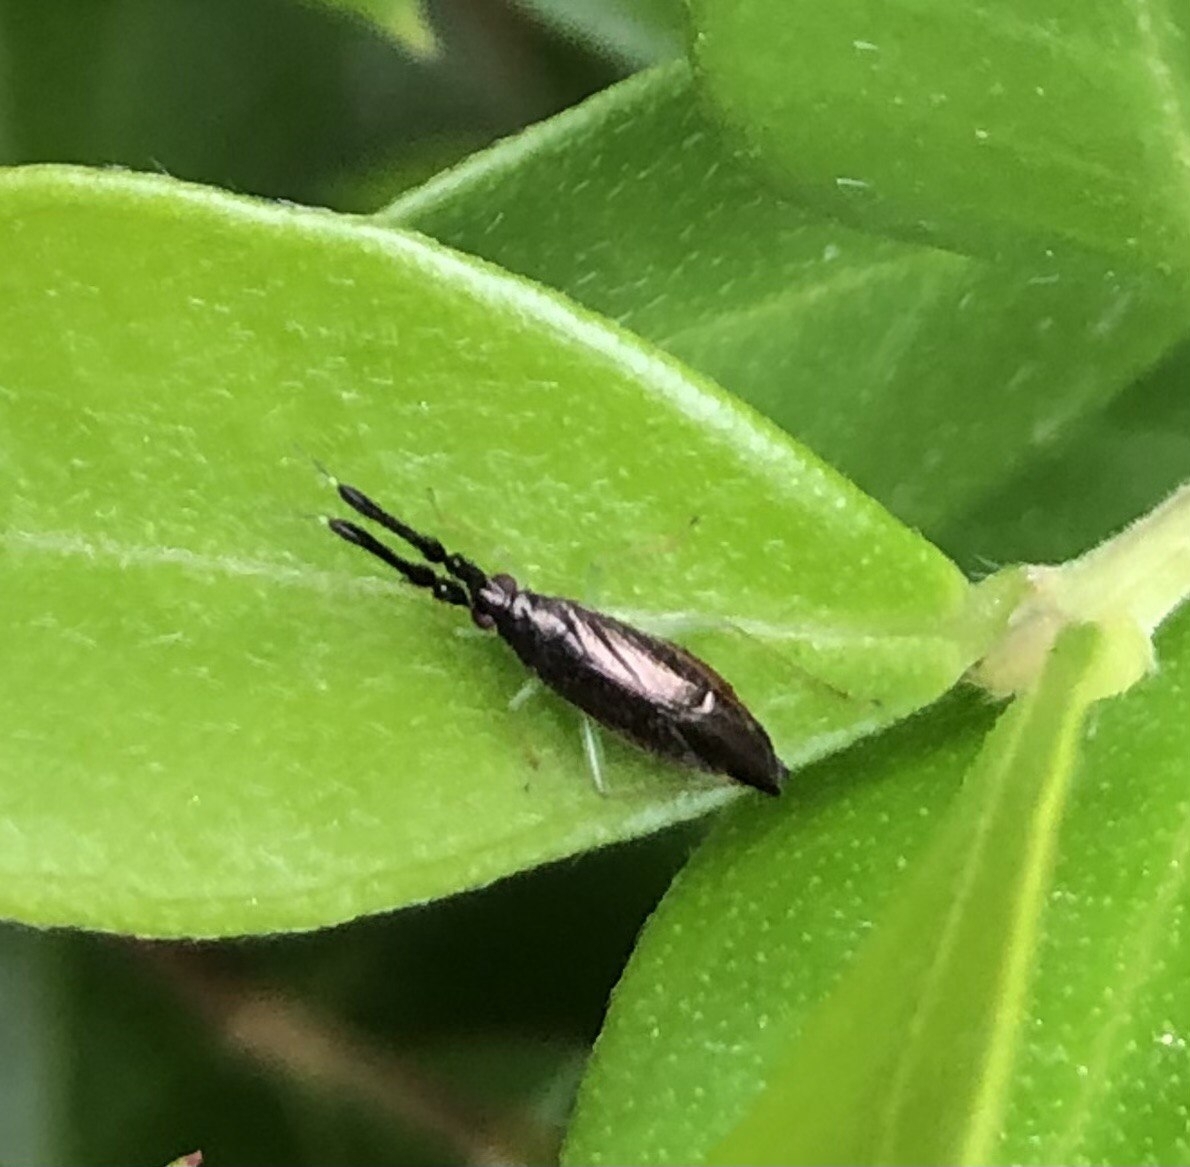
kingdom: Animalia
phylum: Arthropoda
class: Insecta
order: Hemiptera
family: Miridae
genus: Heterotoma
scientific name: Heterotoma planicornis
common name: Plant bug
